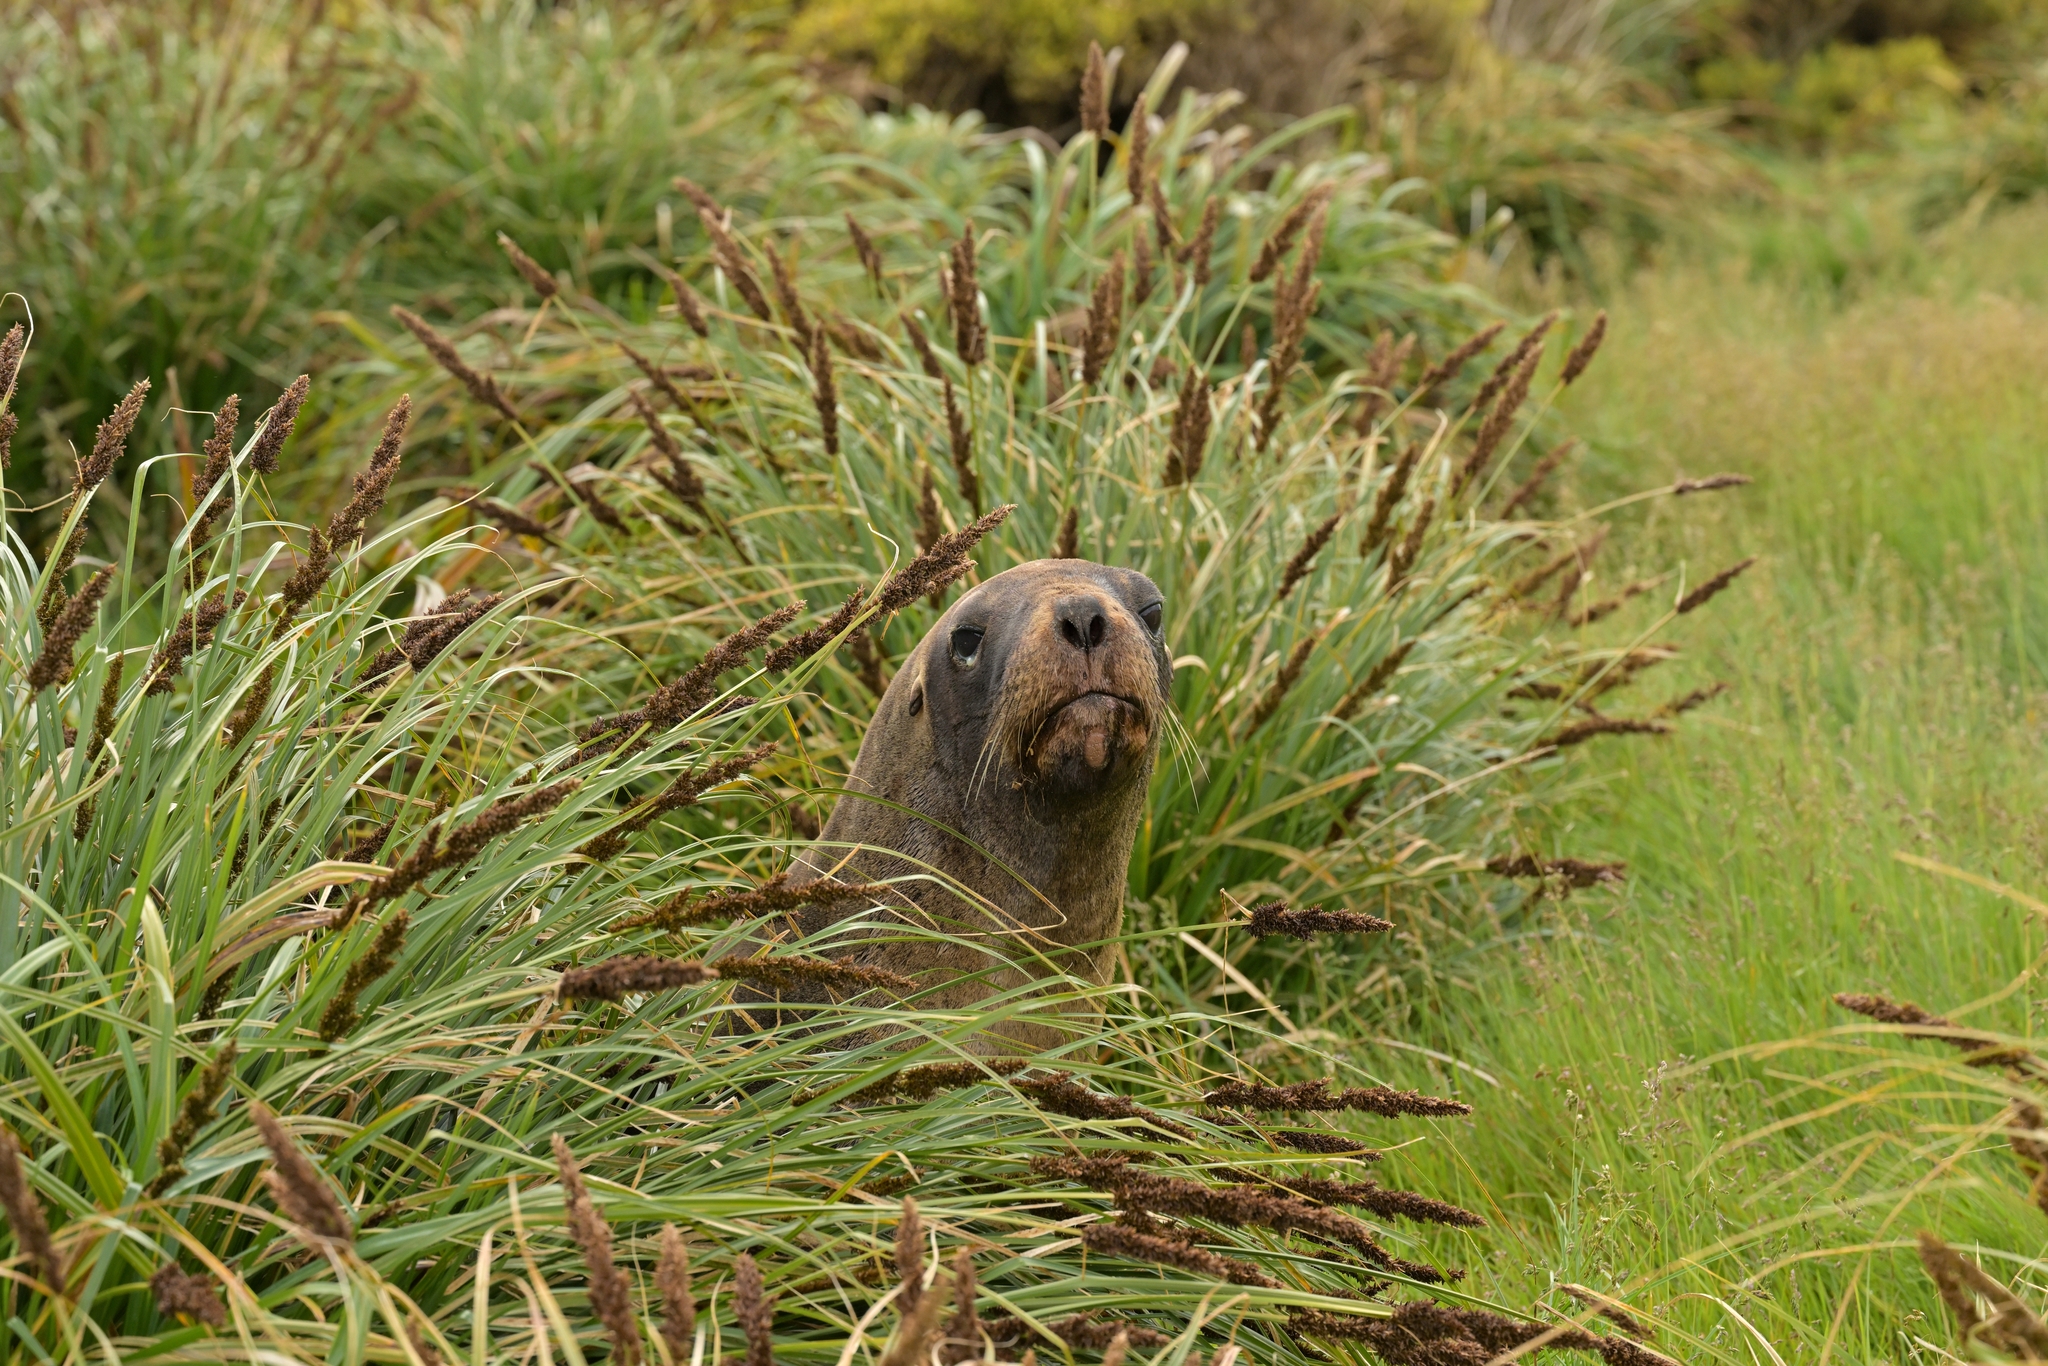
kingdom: Animalia
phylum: Chordata
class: Mammalia
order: Carnivora
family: Otariidae
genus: Phocarctos
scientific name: Phocarctos hookeri
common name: New zealand sea lion
